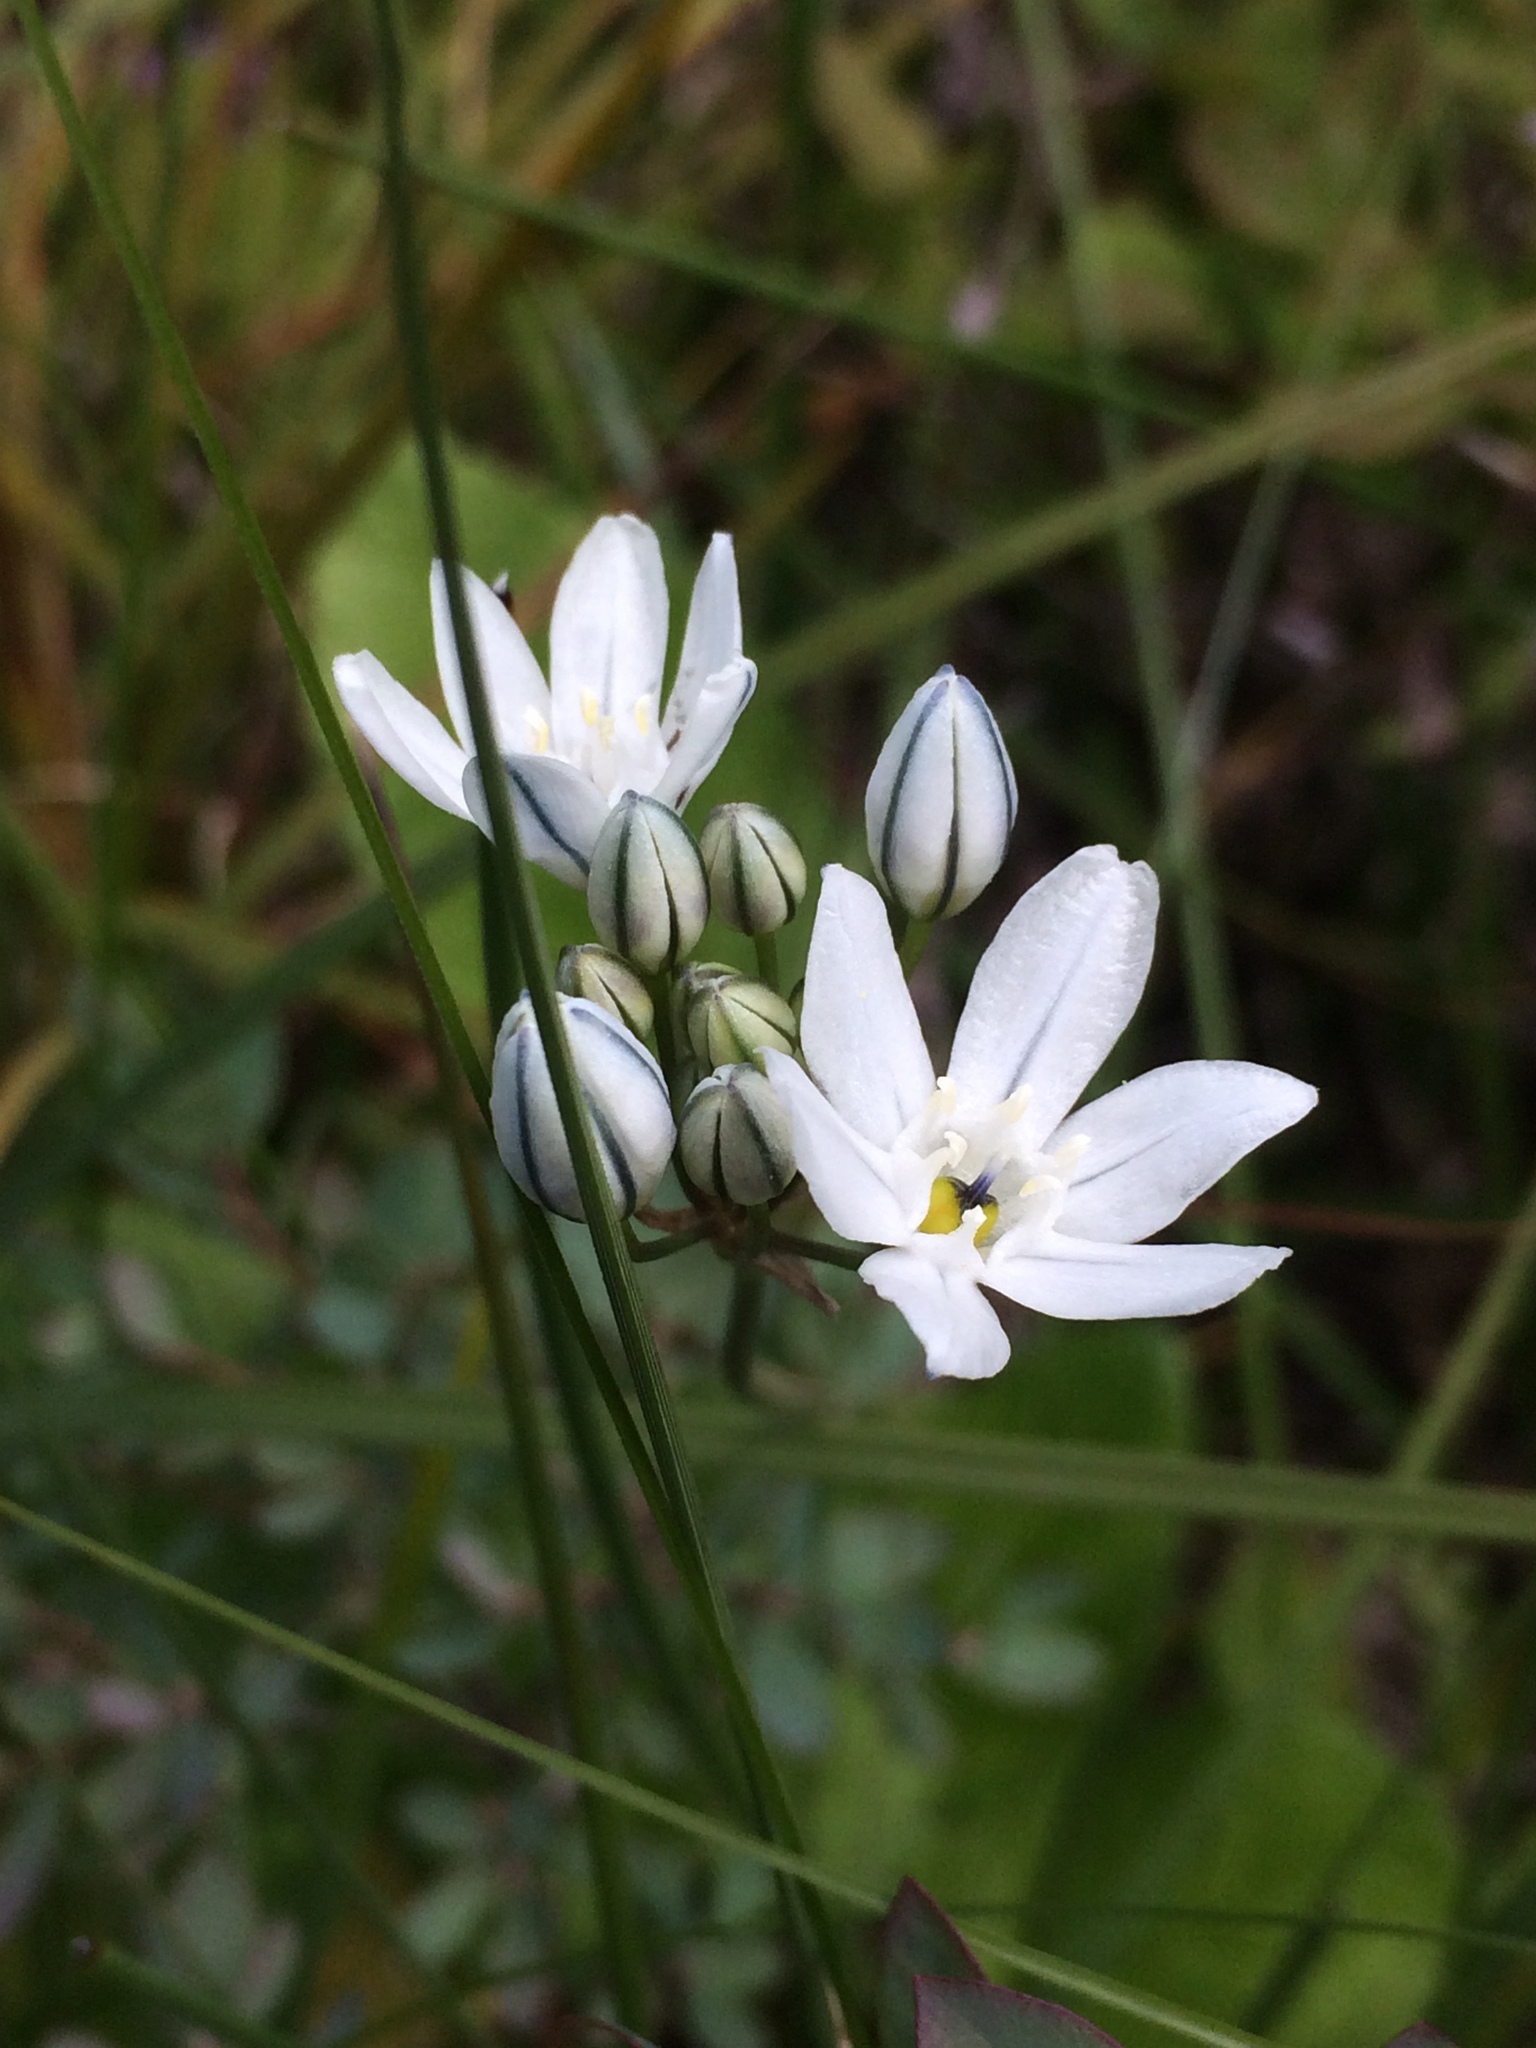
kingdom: Plantae
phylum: Tracheophyta
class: Liliopsida
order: Asparagales
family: Asparagaceae
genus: Triteleia
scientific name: Triteleia hyacinthina
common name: White brodiaea
